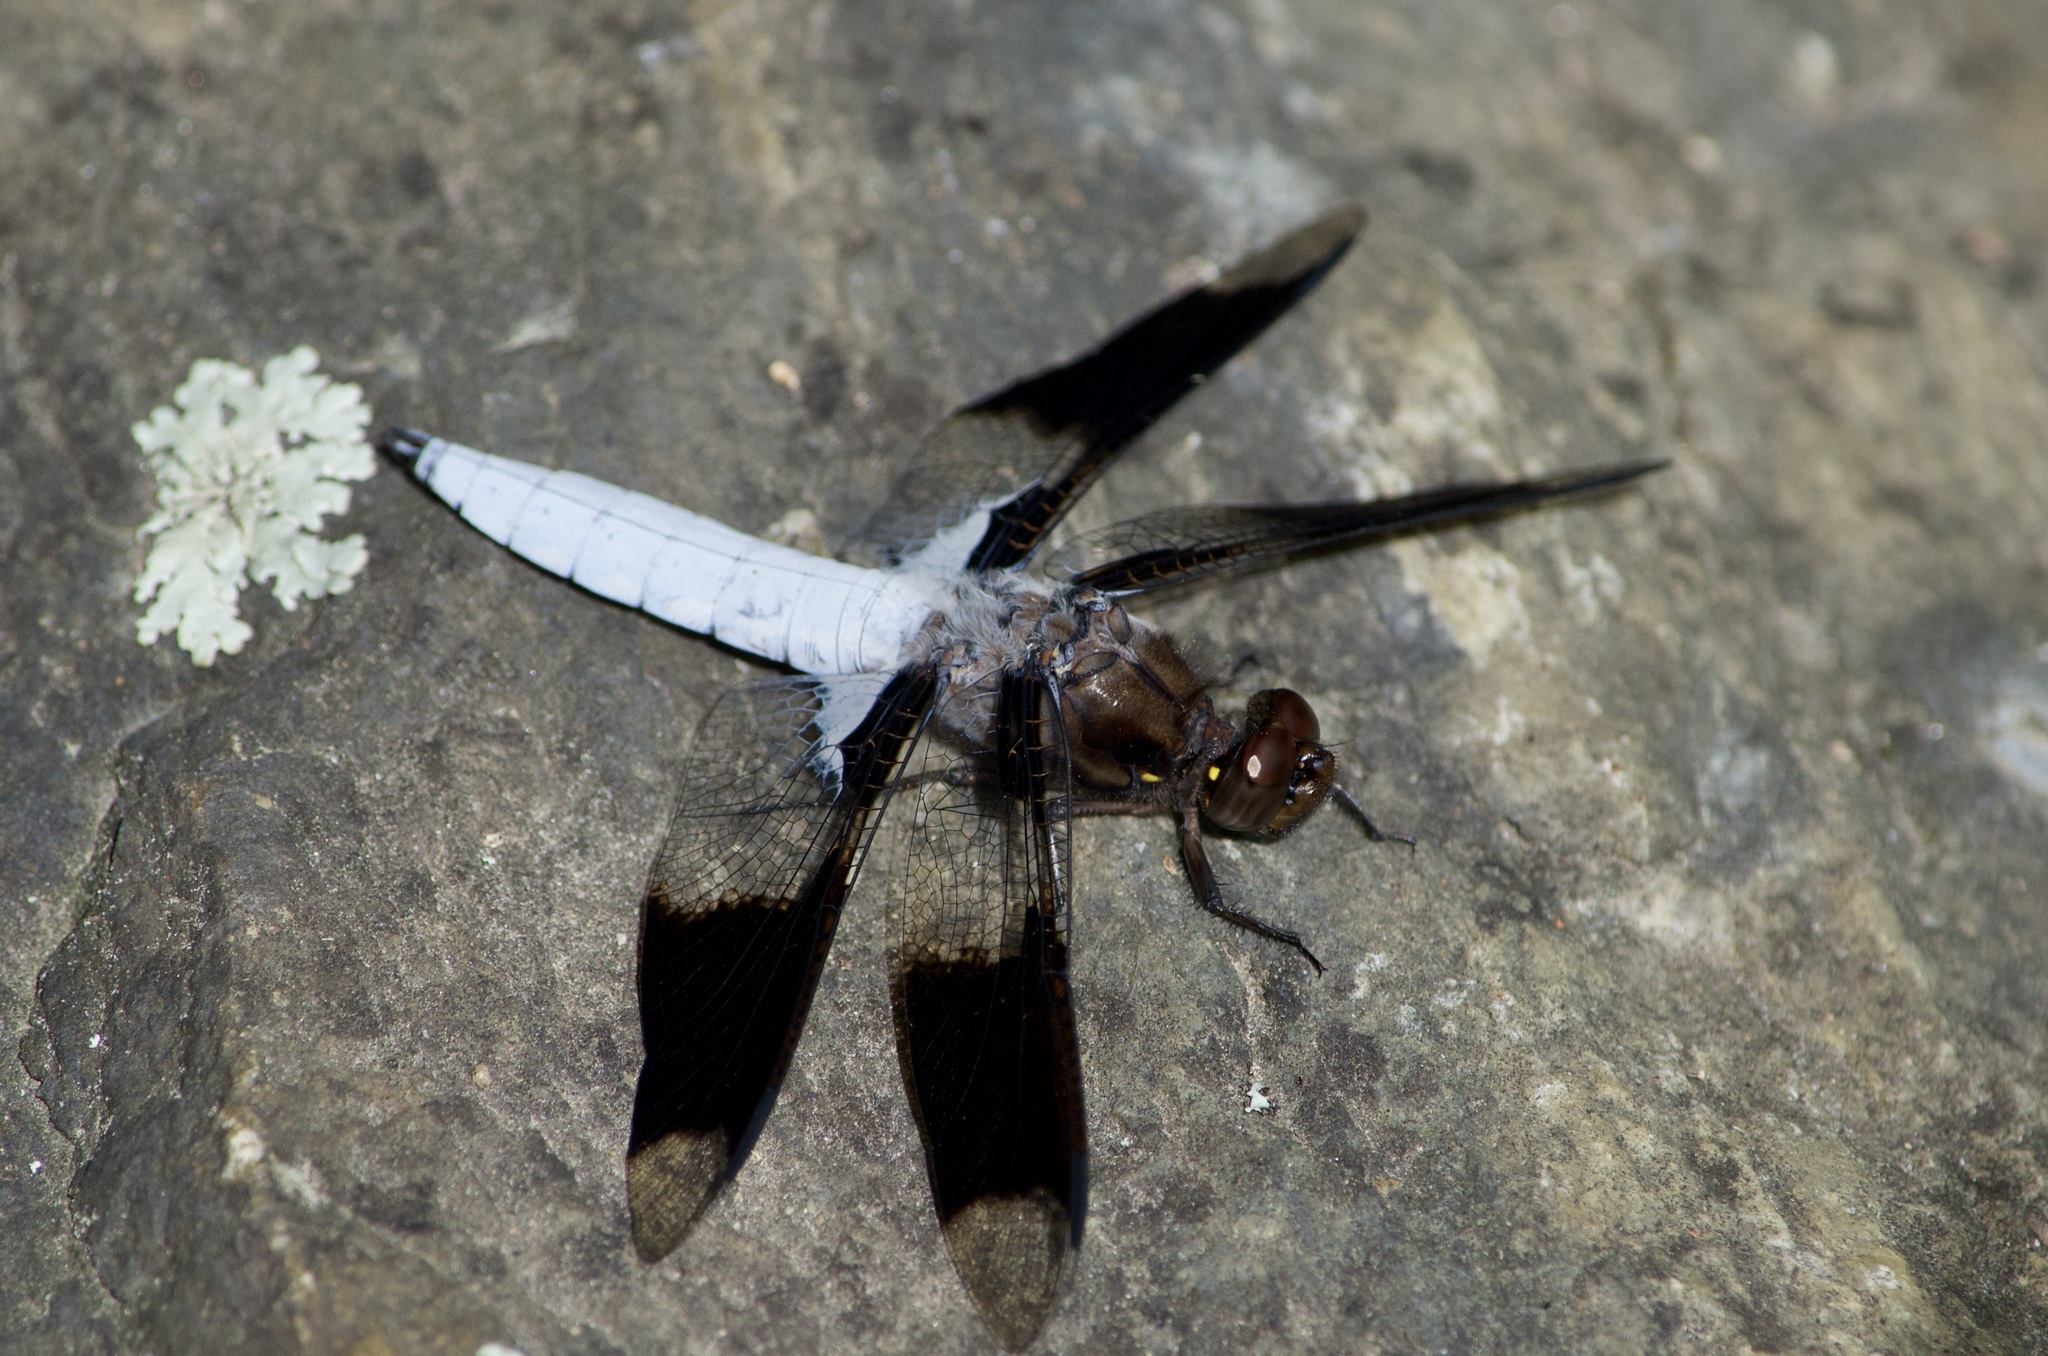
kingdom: Animalia
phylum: Arthropoda
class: Insecta
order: Odonata
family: Libellulidae
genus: Plathemis
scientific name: Plathemis lydia
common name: Common whitetail
